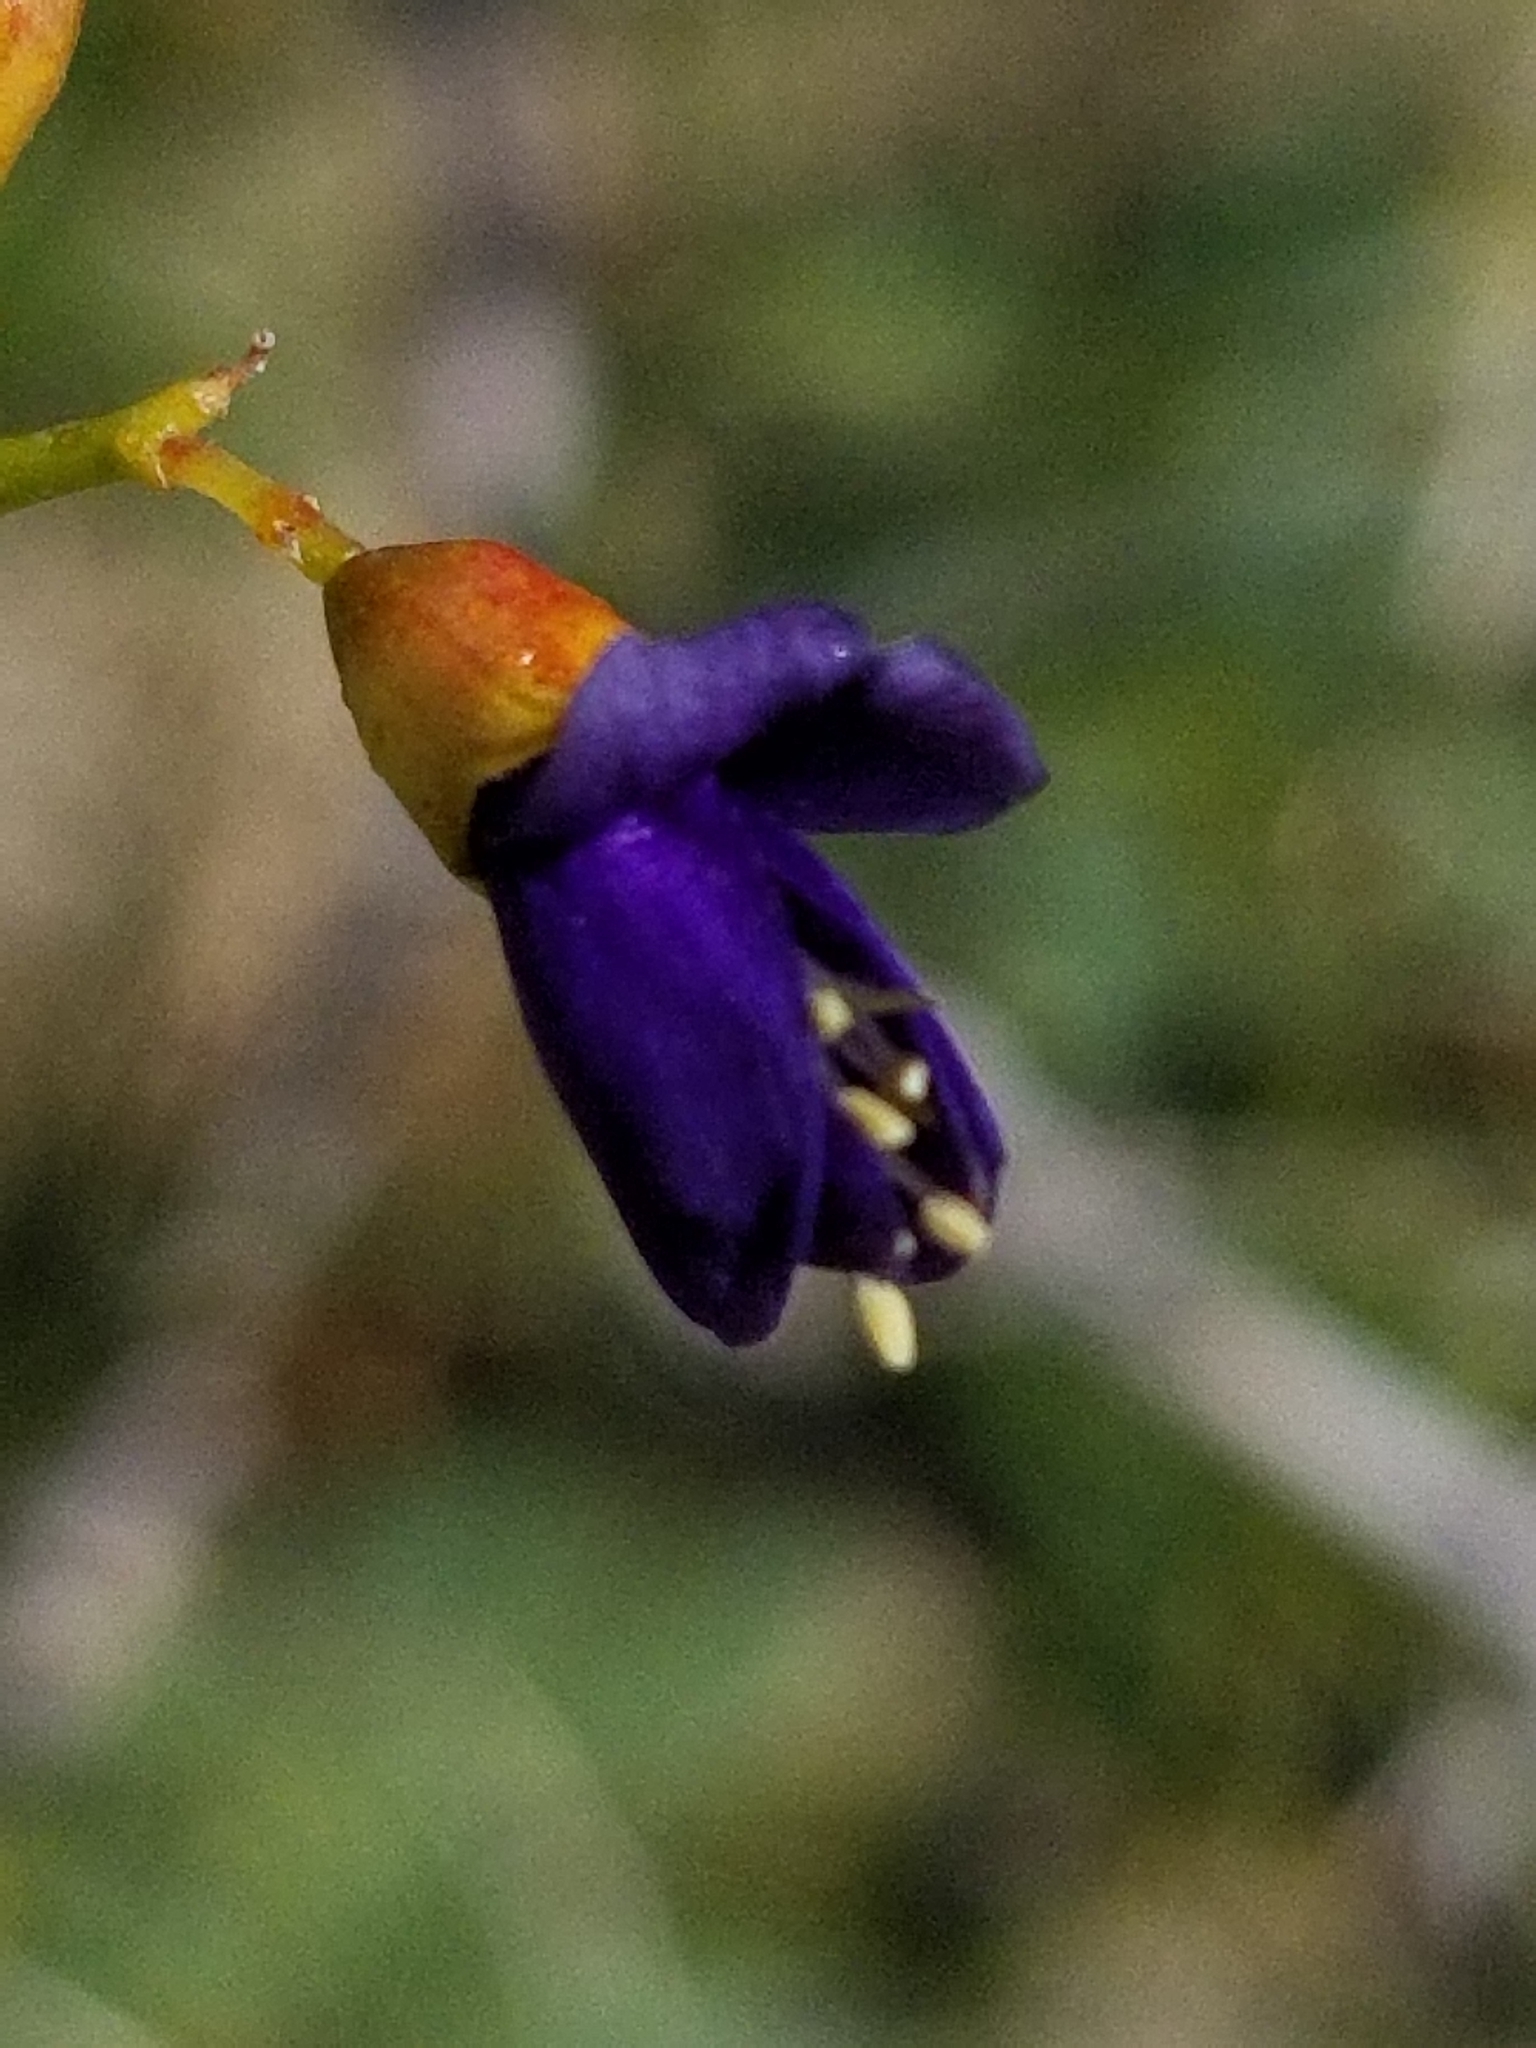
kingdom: Plantae
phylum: Tracheophyta
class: Magnoliopsida
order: Fabales
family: Fabaceae
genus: Psorothamnus
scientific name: Psorothamnus schottii
